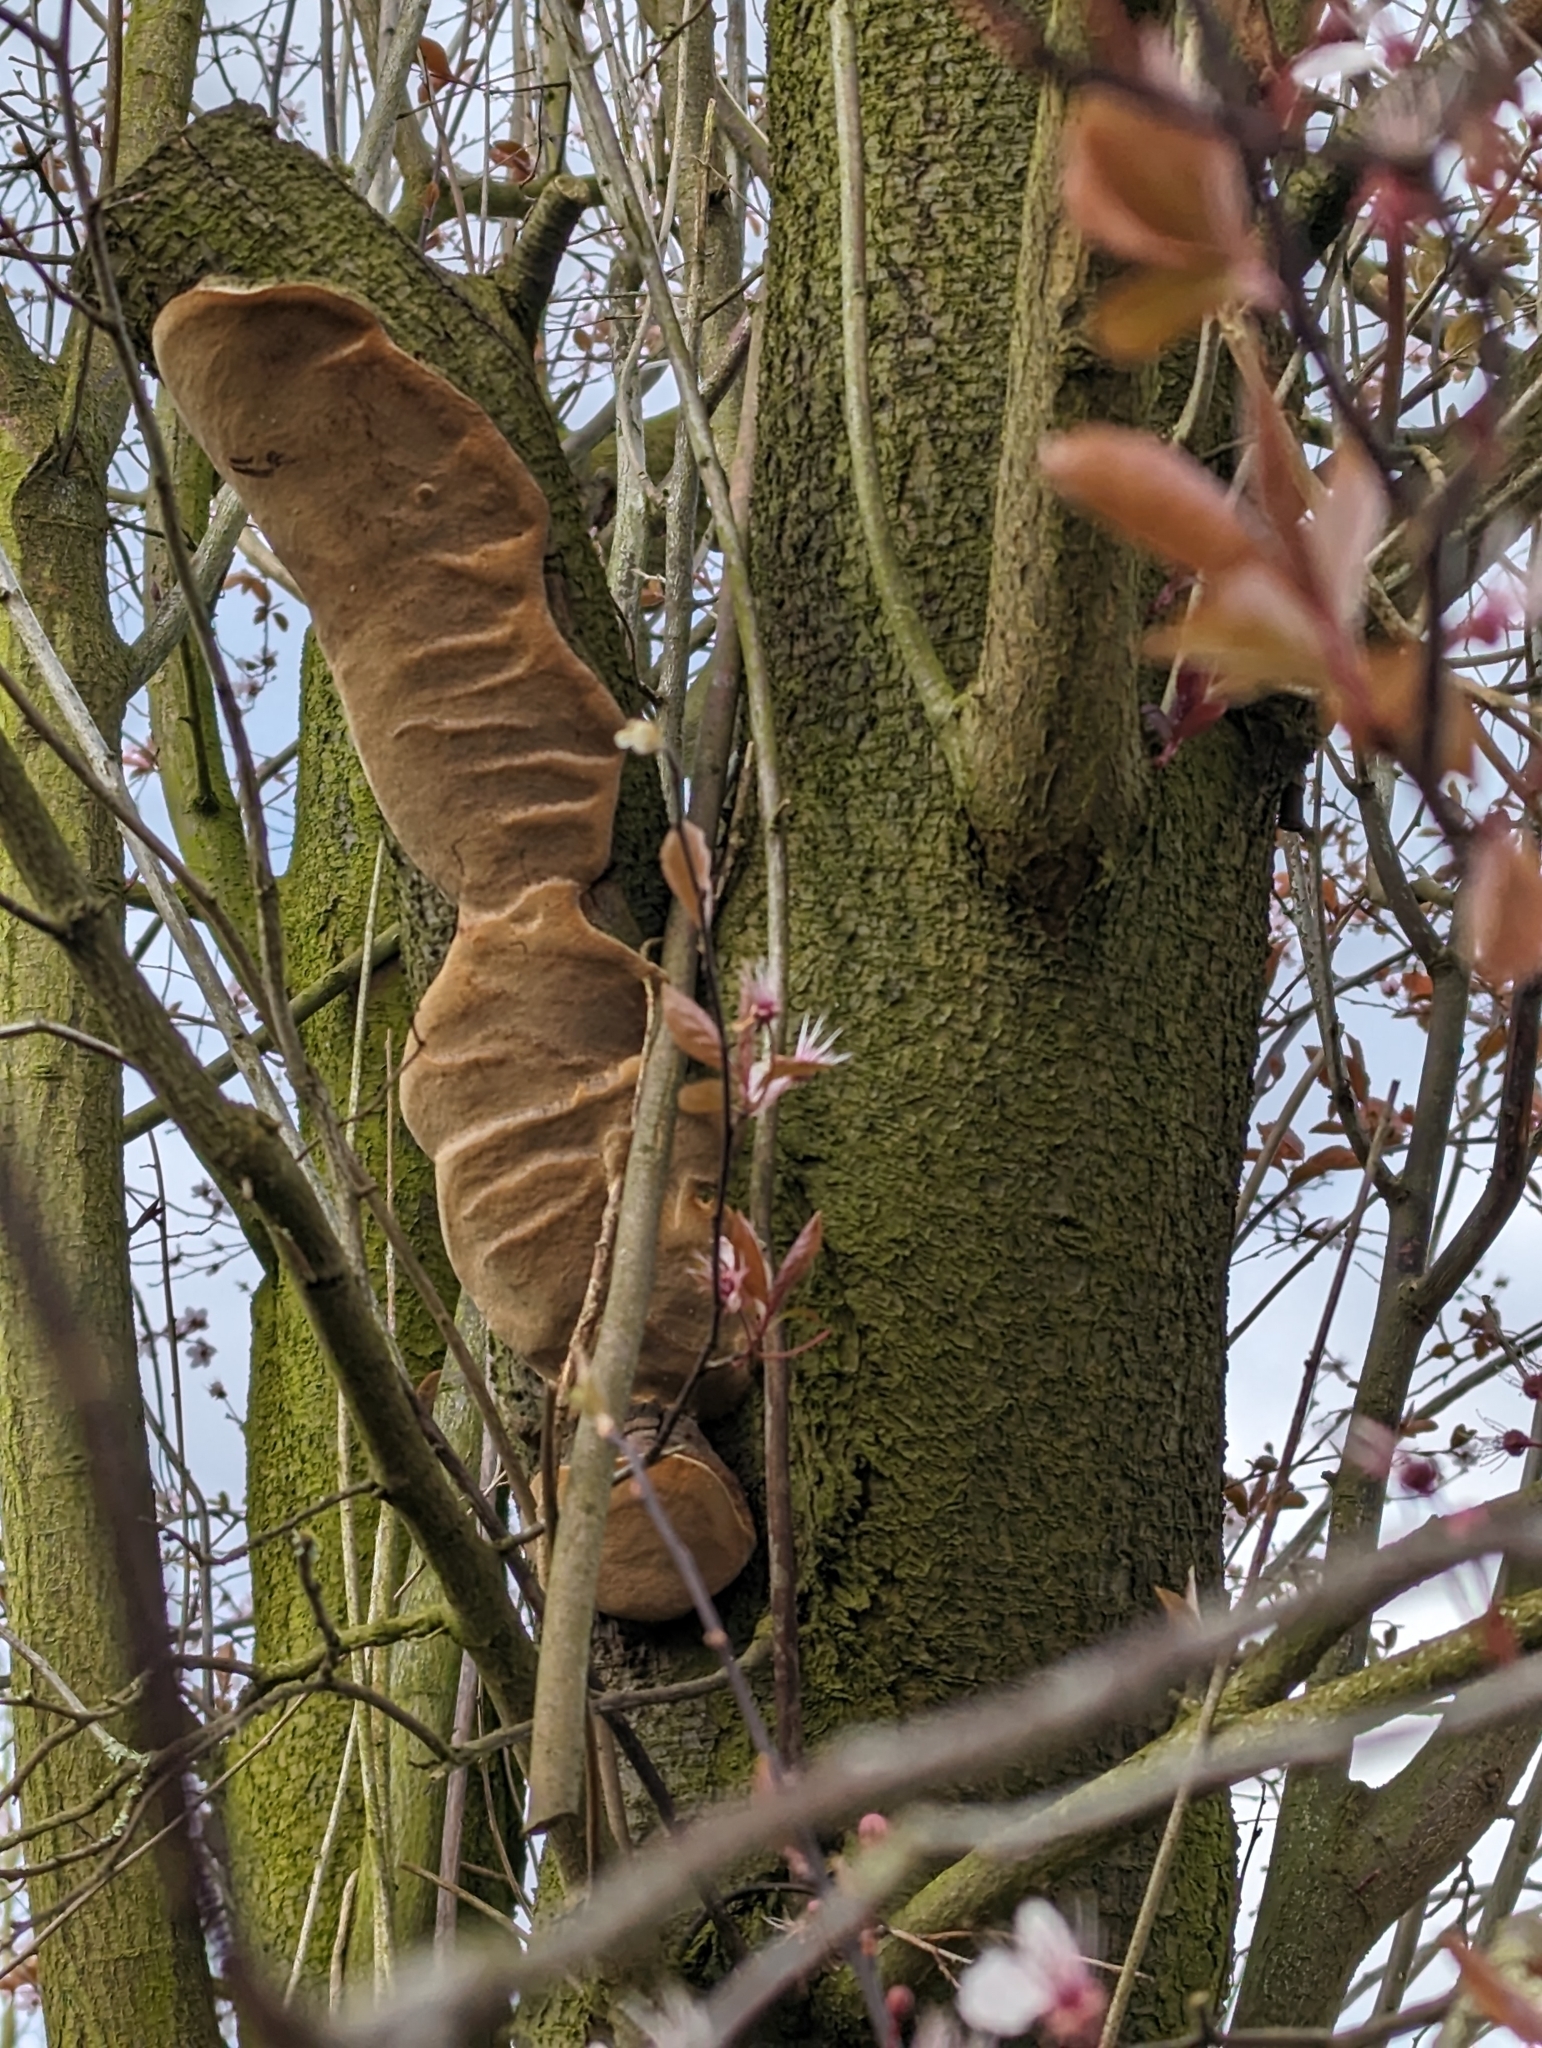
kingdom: Fungi
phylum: Basidiomycota
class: Agaricomycetes
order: Hymenochaetales
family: Hymenochaetaceae
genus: Phellinus
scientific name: Phellinus pomaceus
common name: Cushion bracket
